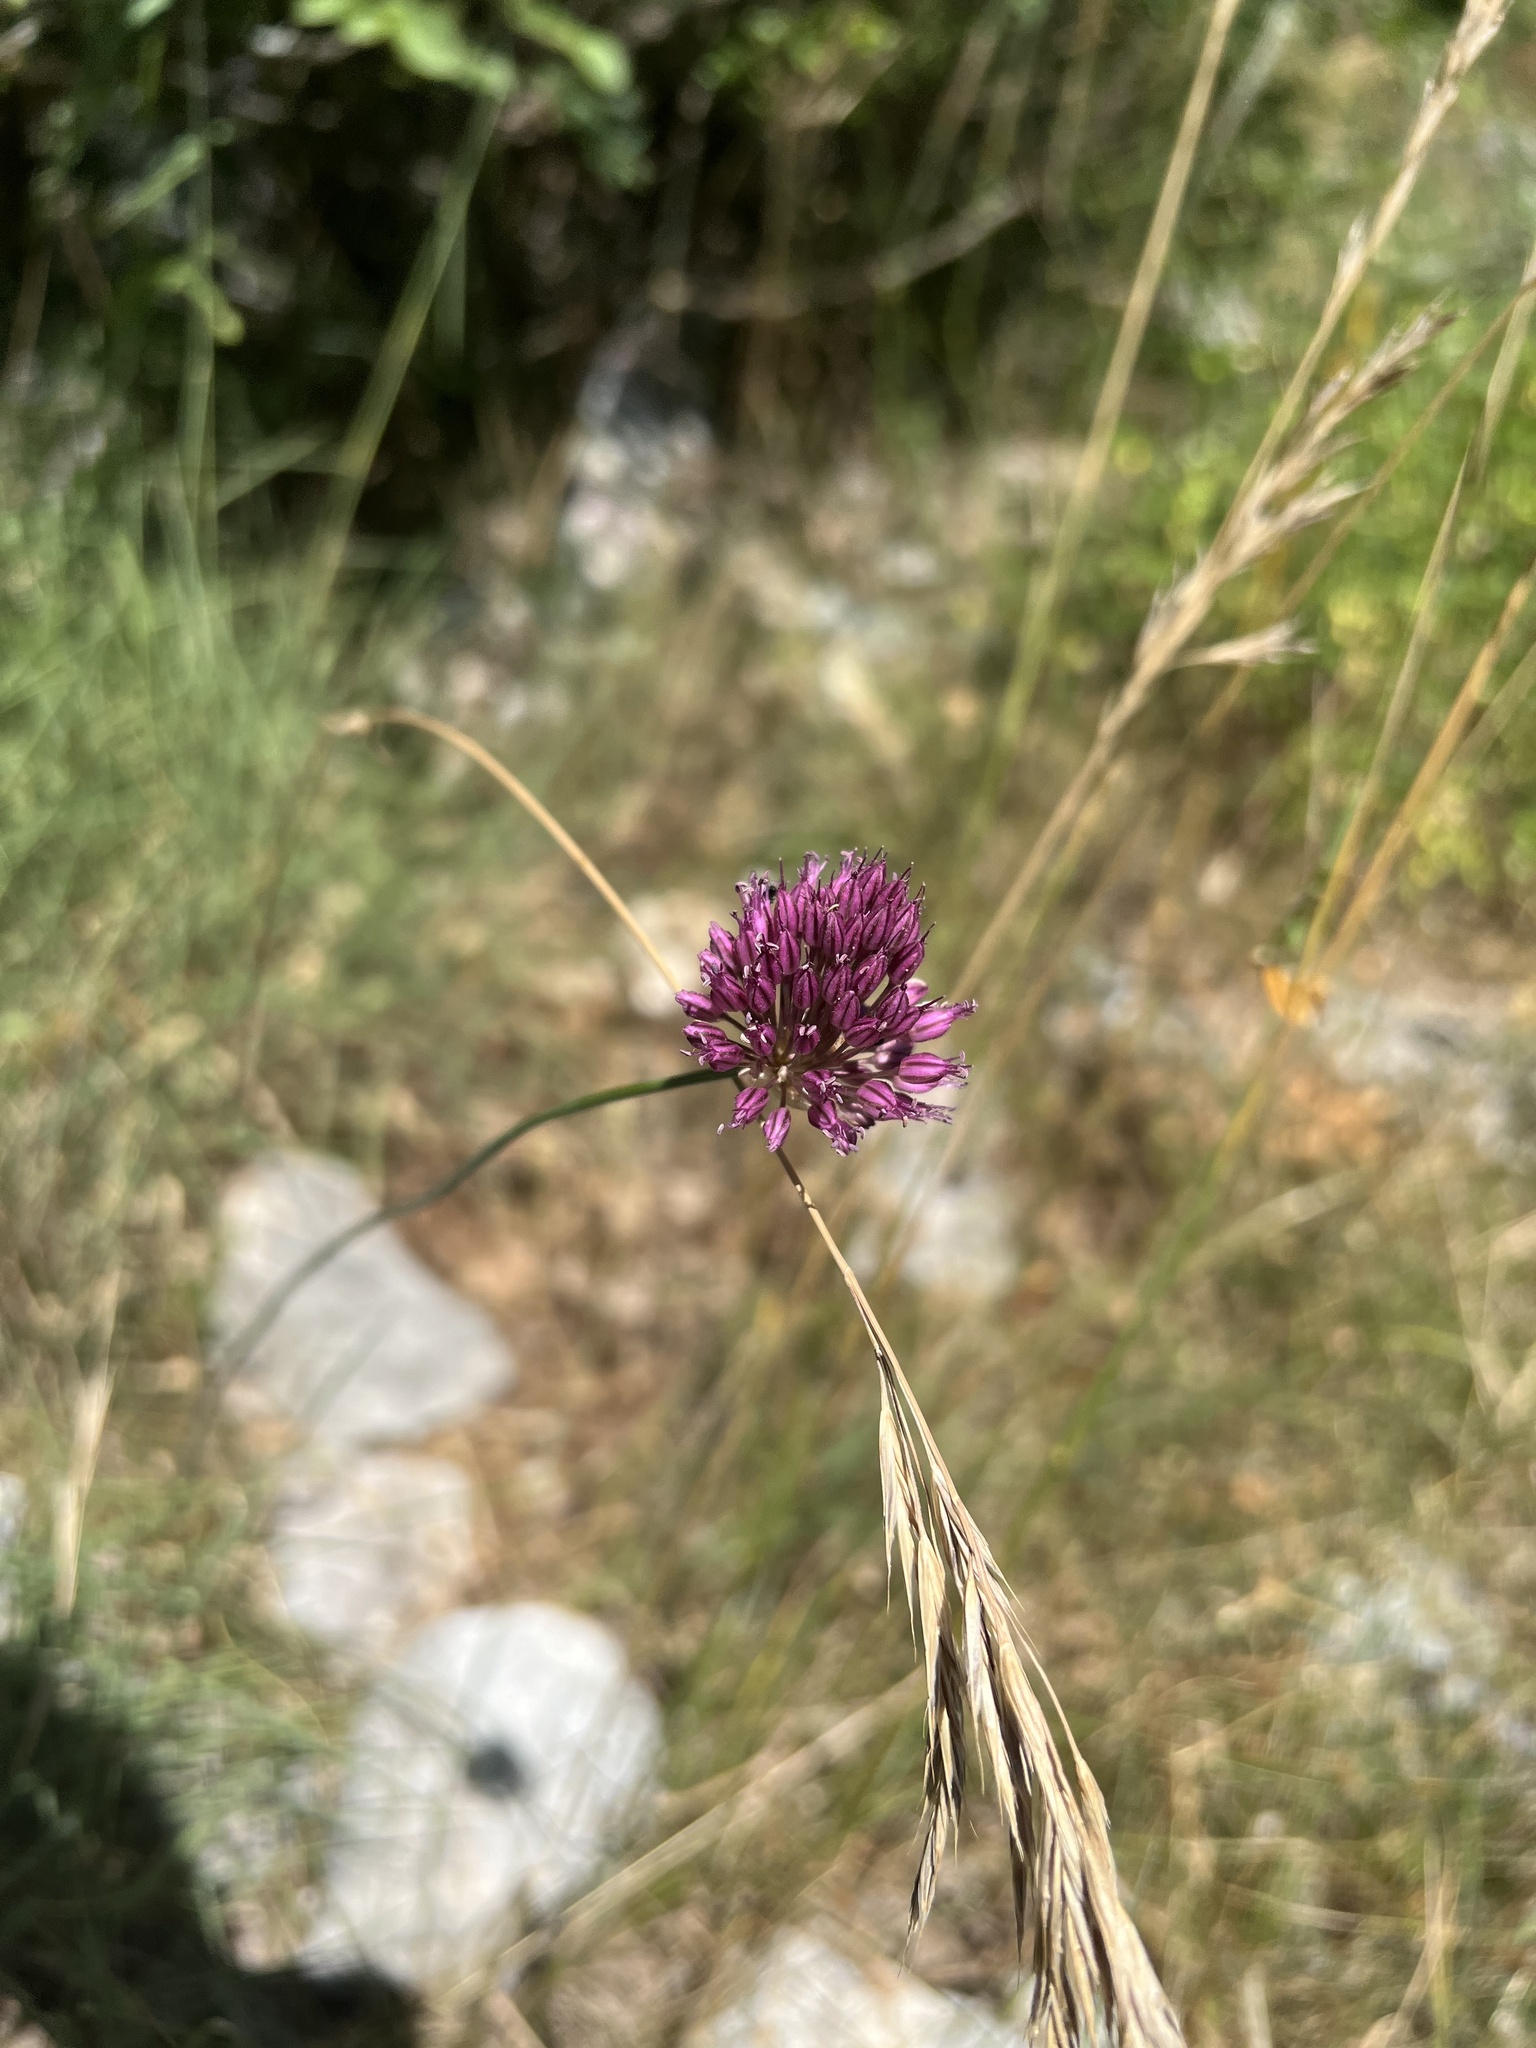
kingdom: Plantae
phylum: Tracheophyta
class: Liliopsida
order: Asparagales
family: Amaryllidaceae
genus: Allium
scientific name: Allium sphaerocephalon
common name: Round-headed leek
